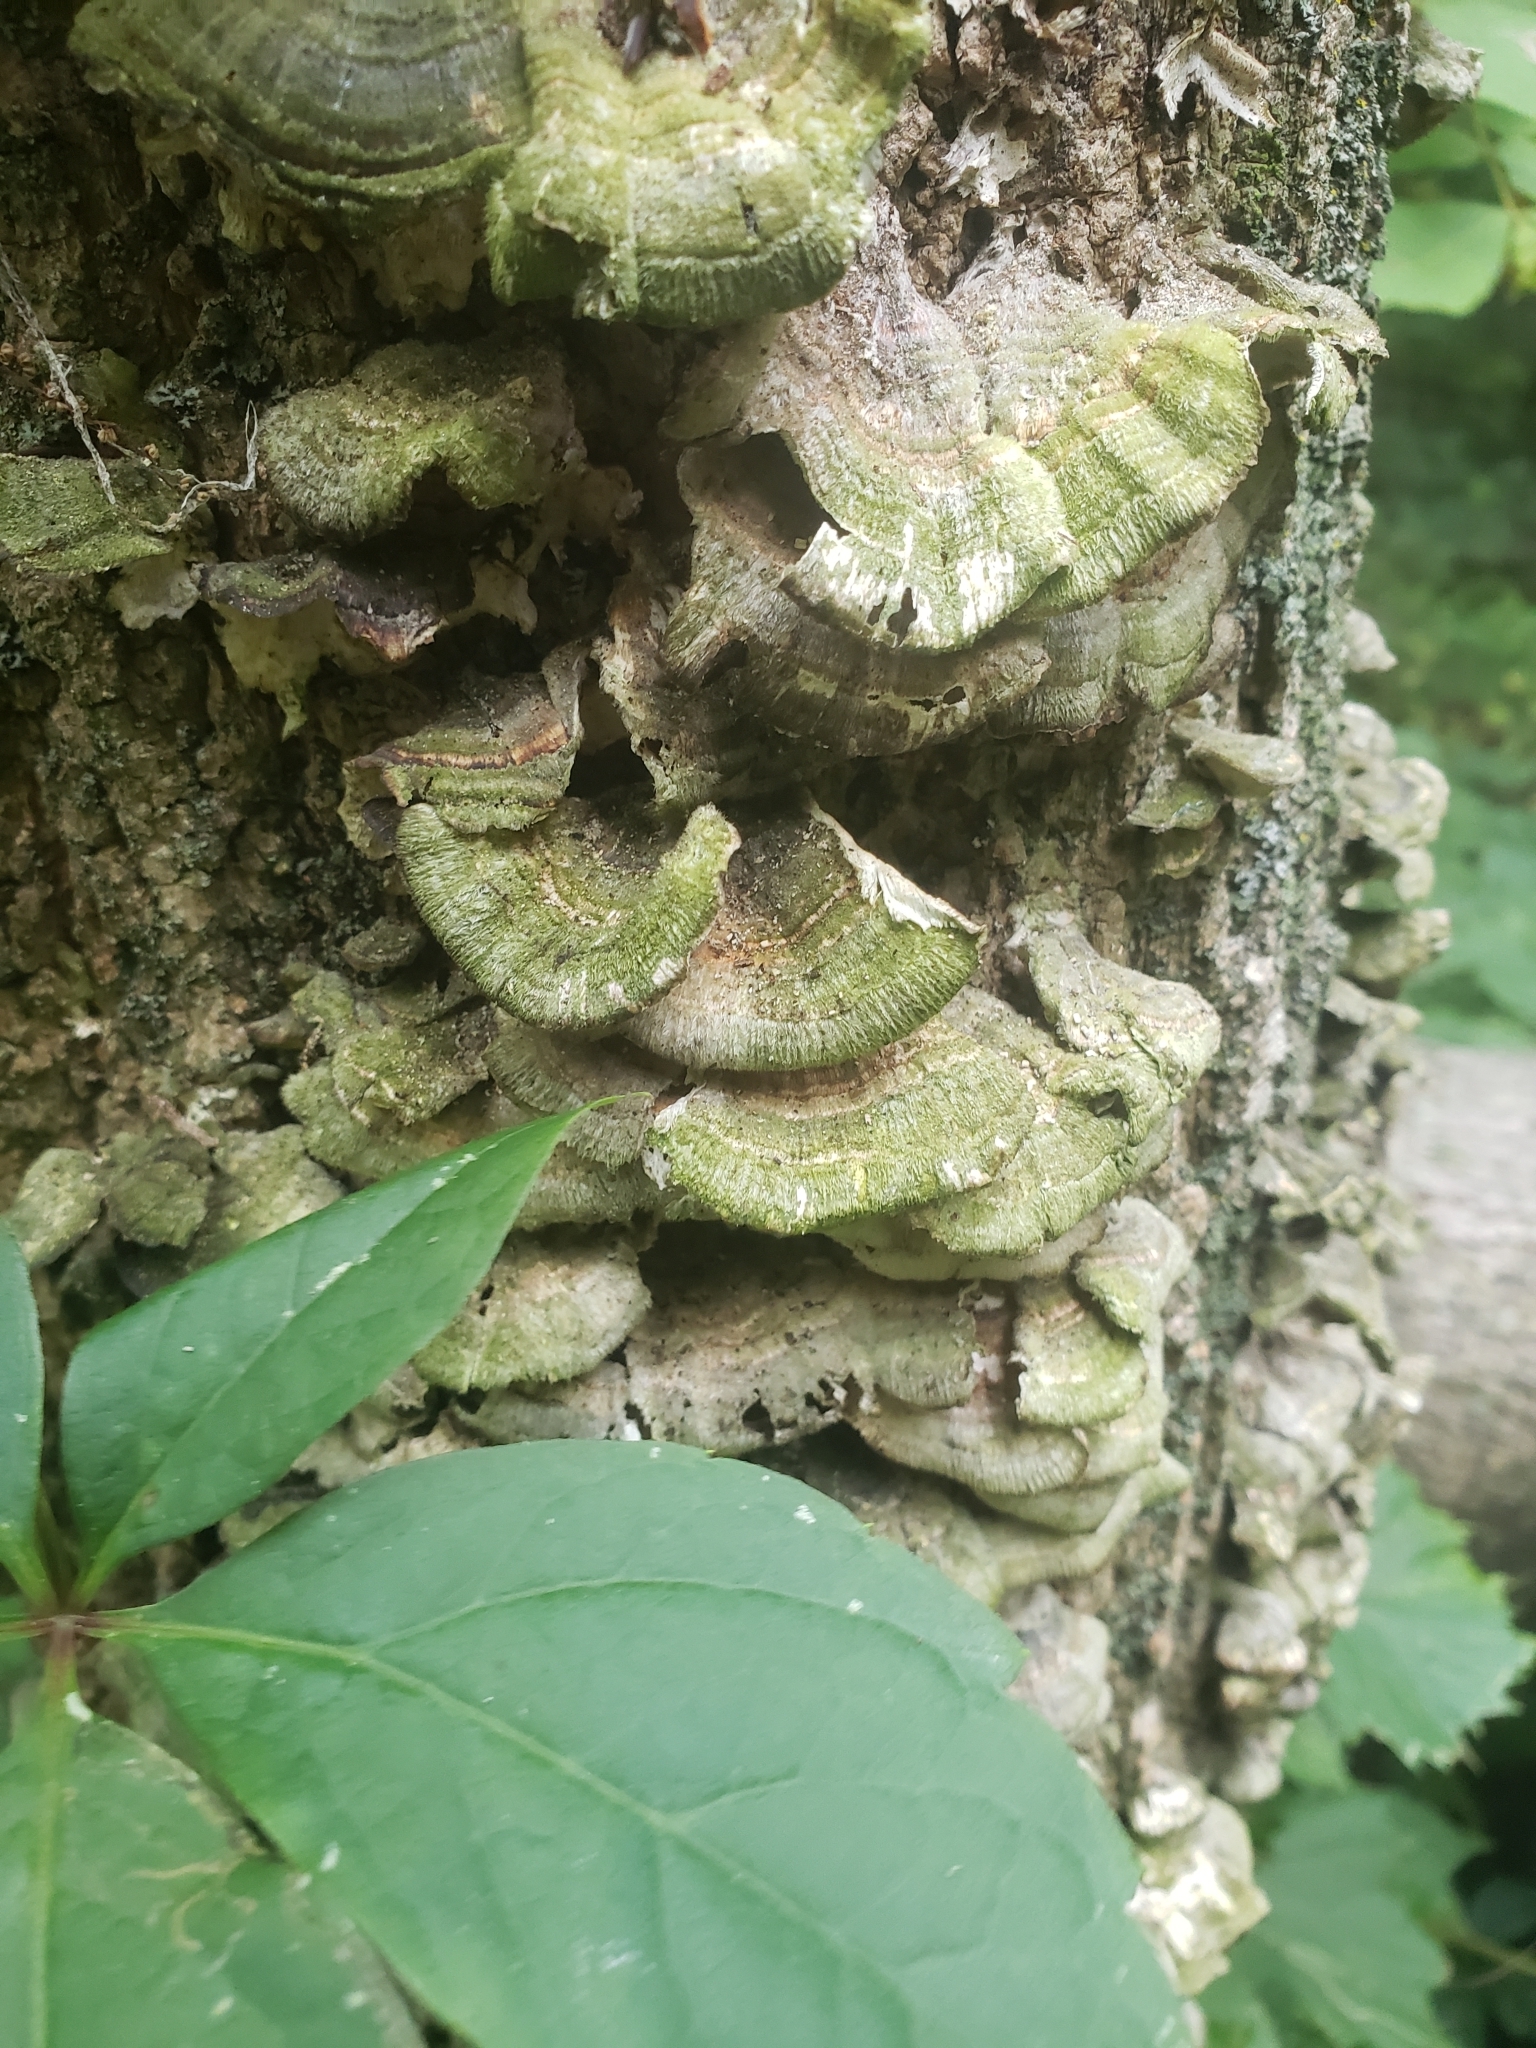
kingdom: Fungi
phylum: Basidiomycota
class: Agaricomycetes
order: Polyporales
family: Polyporaceae
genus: Trametes
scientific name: Trametes versicolor
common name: Turkeytail
